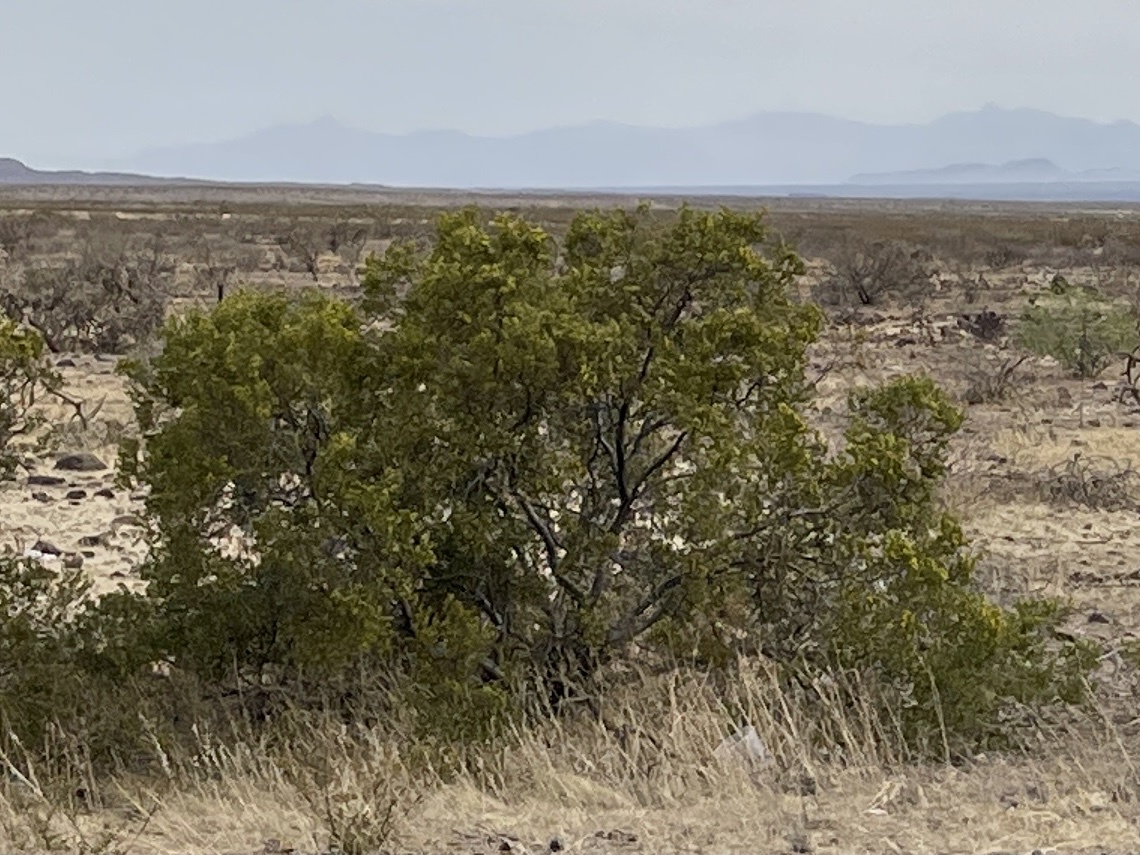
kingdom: Plantae
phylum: Tracheophyta
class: Magnoliopsida
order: Zygophyllales
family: Zygophyllaceae
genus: Larrea
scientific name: Larrea tridentata
